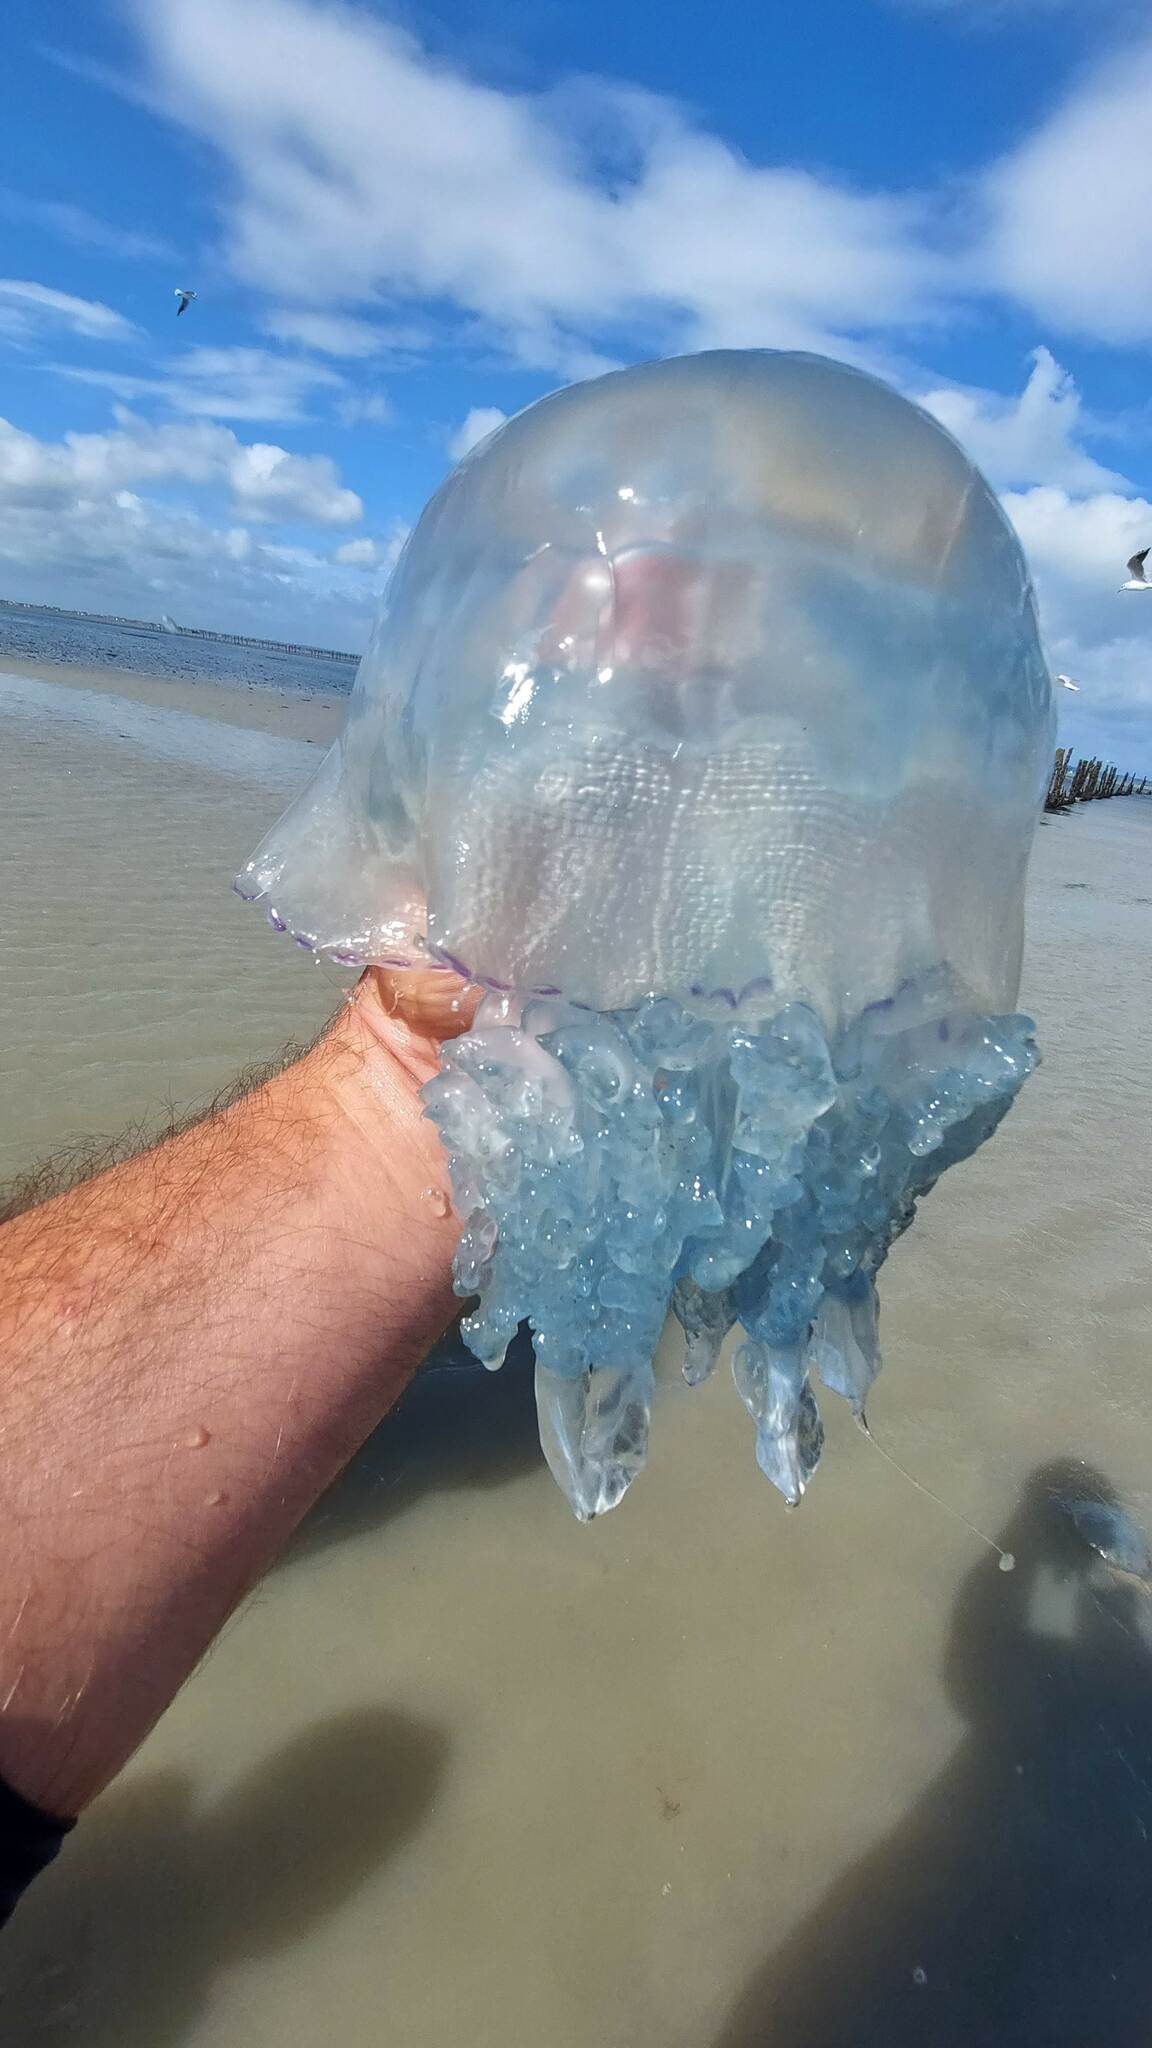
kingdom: Animalia
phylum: Cnidaria
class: Scyphozoa
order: Rhizostomeae
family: Rhizostomatidae
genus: Rhizostoma
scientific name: Rhizostoma octopus
